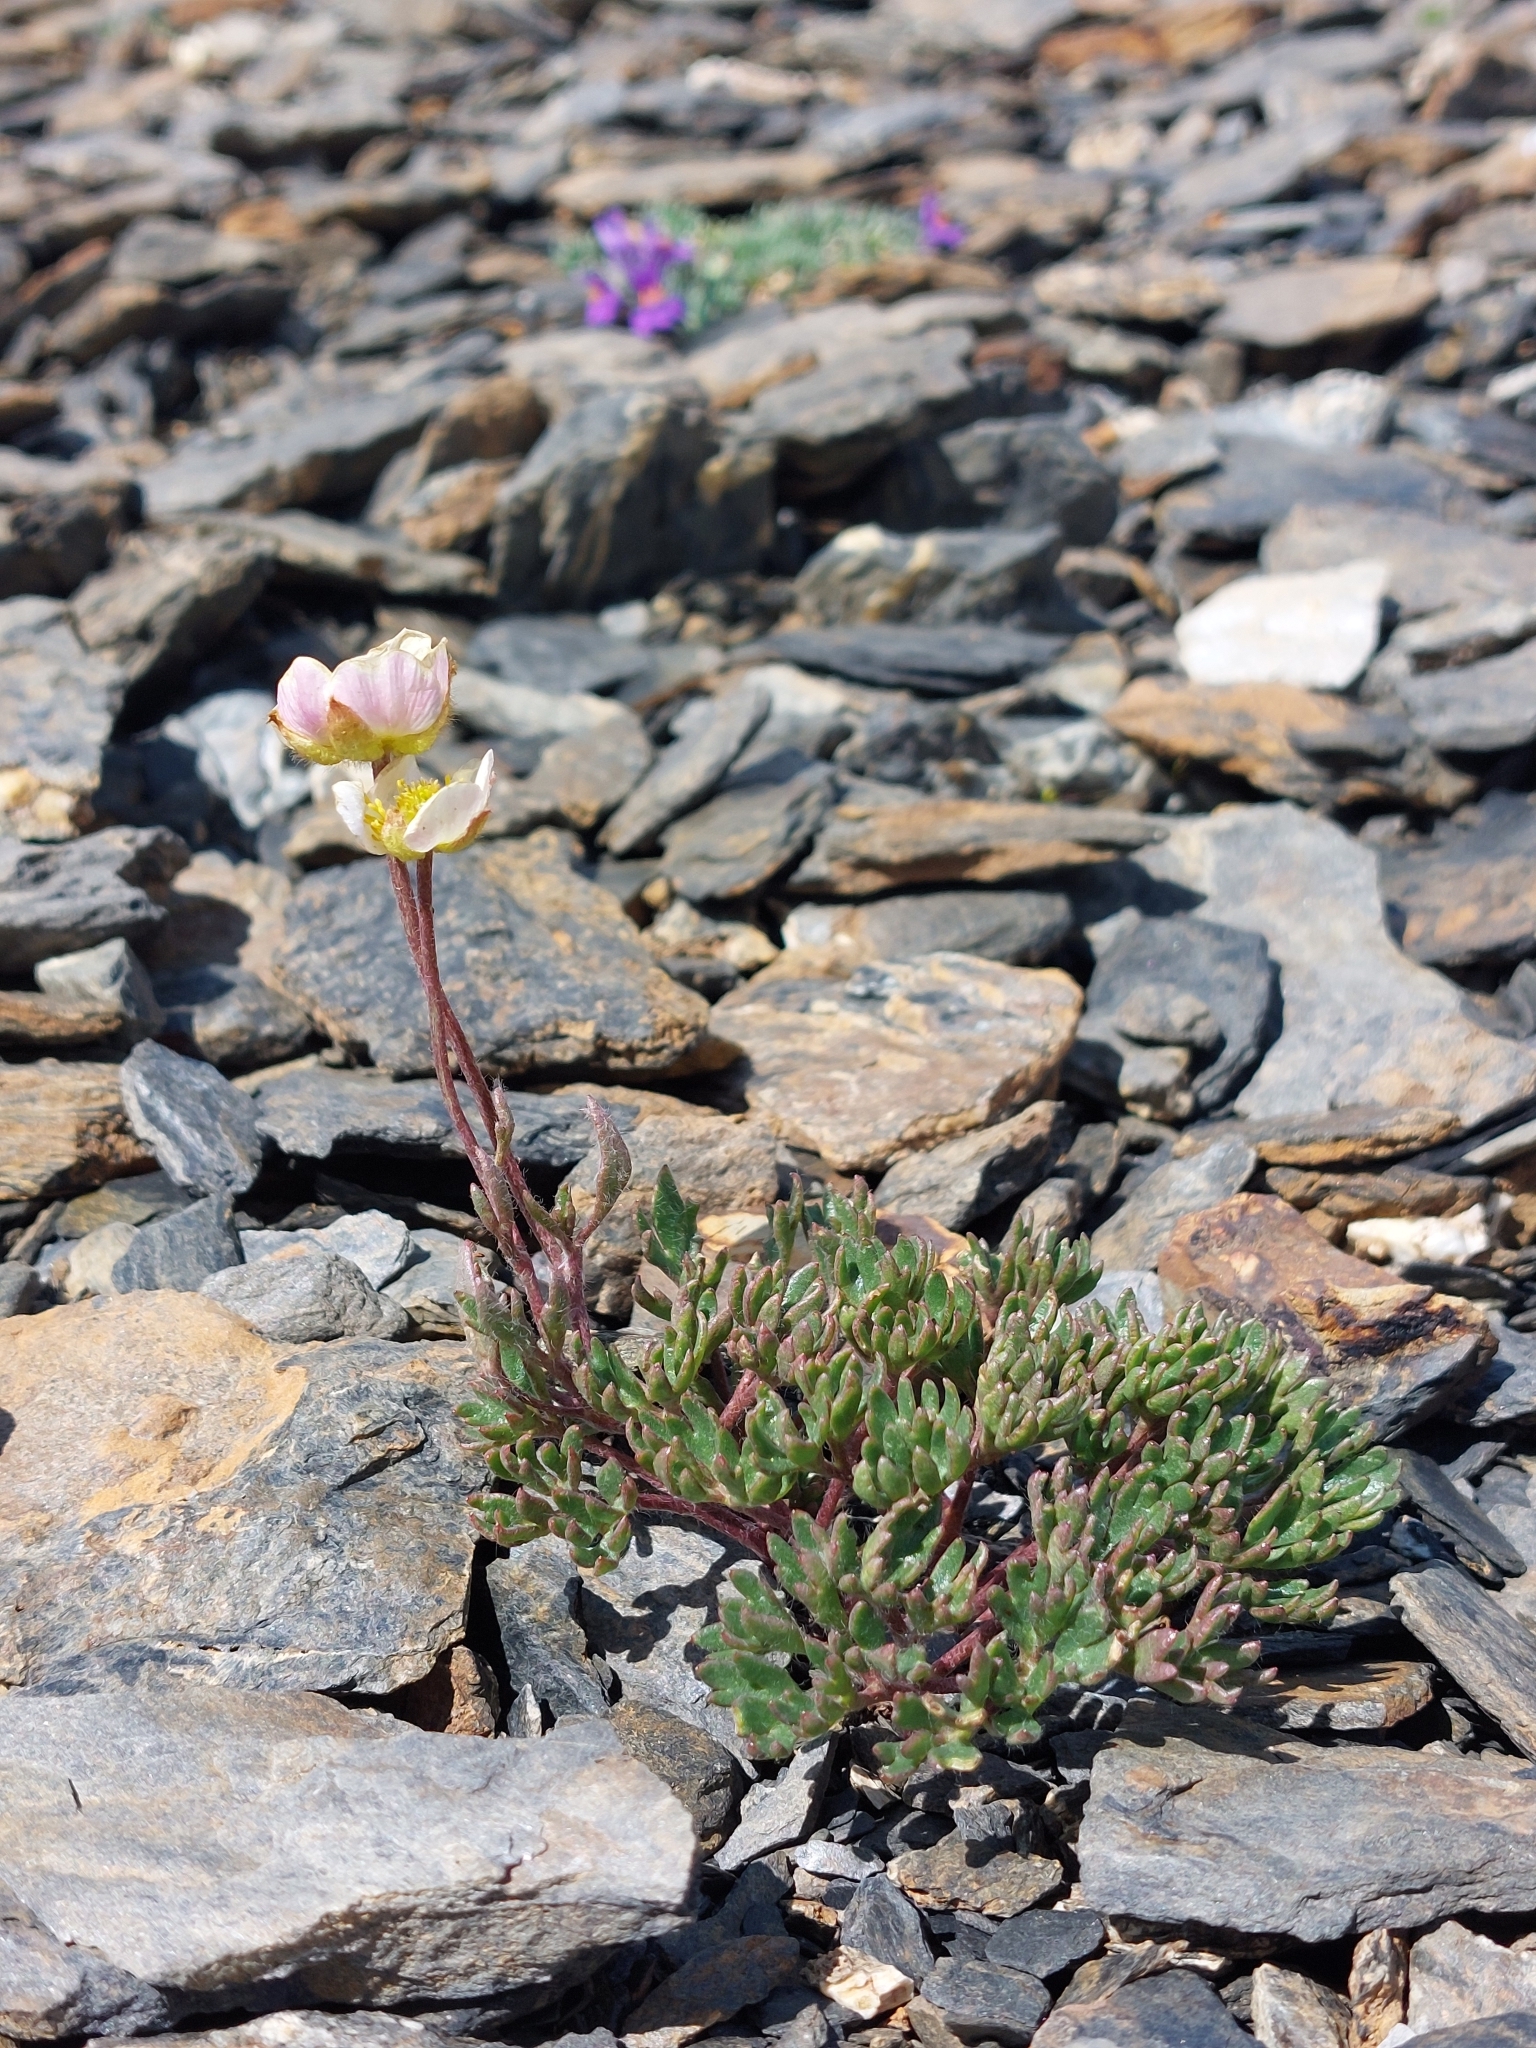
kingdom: Plantae
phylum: Tracheophyta
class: Magnoliopsida
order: Ranunculales
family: Ranunculaceae
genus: Ranunculus
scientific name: Ranunculus glacialis
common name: Glacier buttercup
